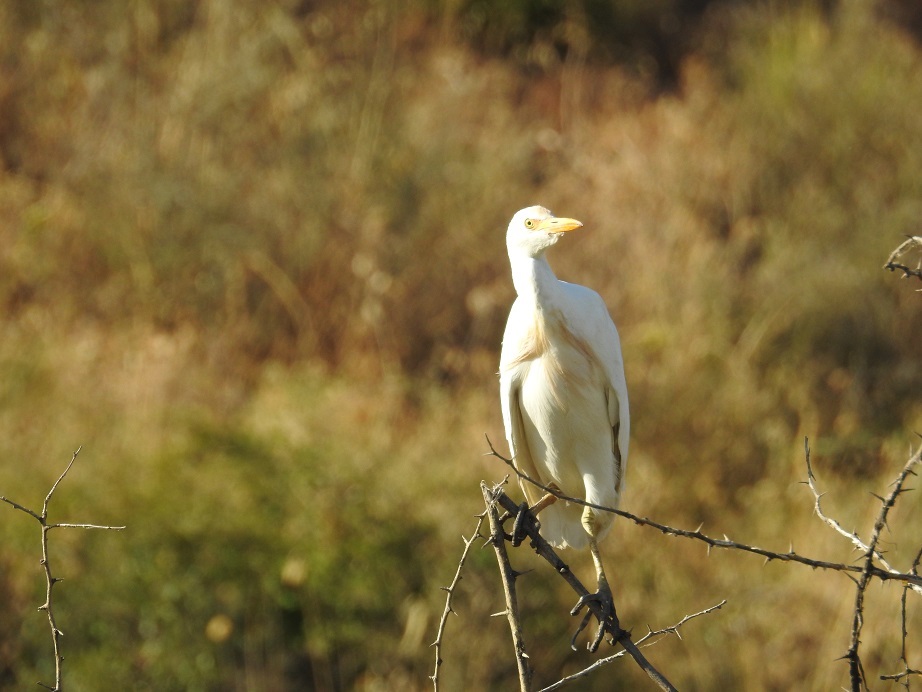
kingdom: Animalia
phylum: Chordata
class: Aves
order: Pelecaniformes
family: Ardeidae
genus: Bubulcus
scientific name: Bubulcus ibis
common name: Cattle egret
